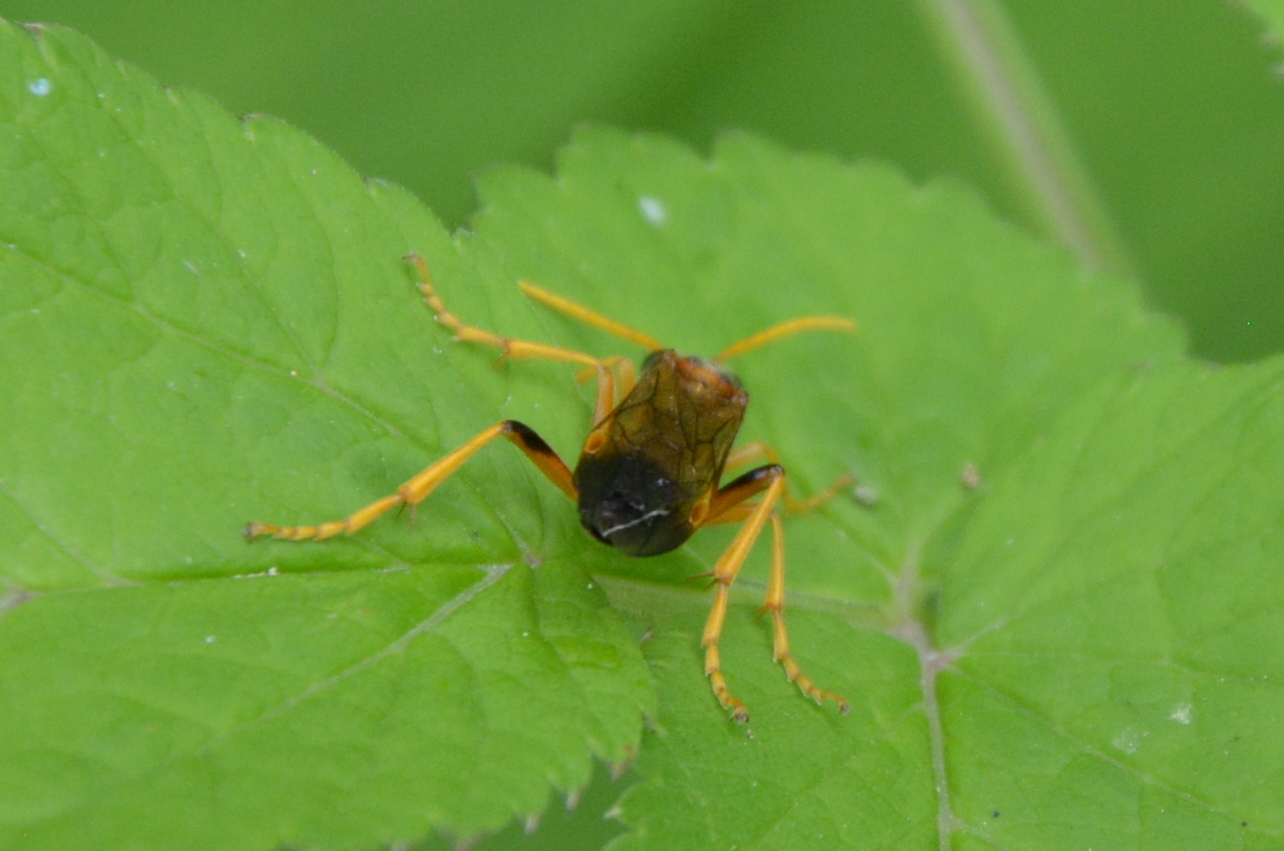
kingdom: Animalia
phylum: Arthropoda
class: Insecta
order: Hymenoptera
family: Tenthredinidae
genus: Tenthredo
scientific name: Tenthredo campestris
